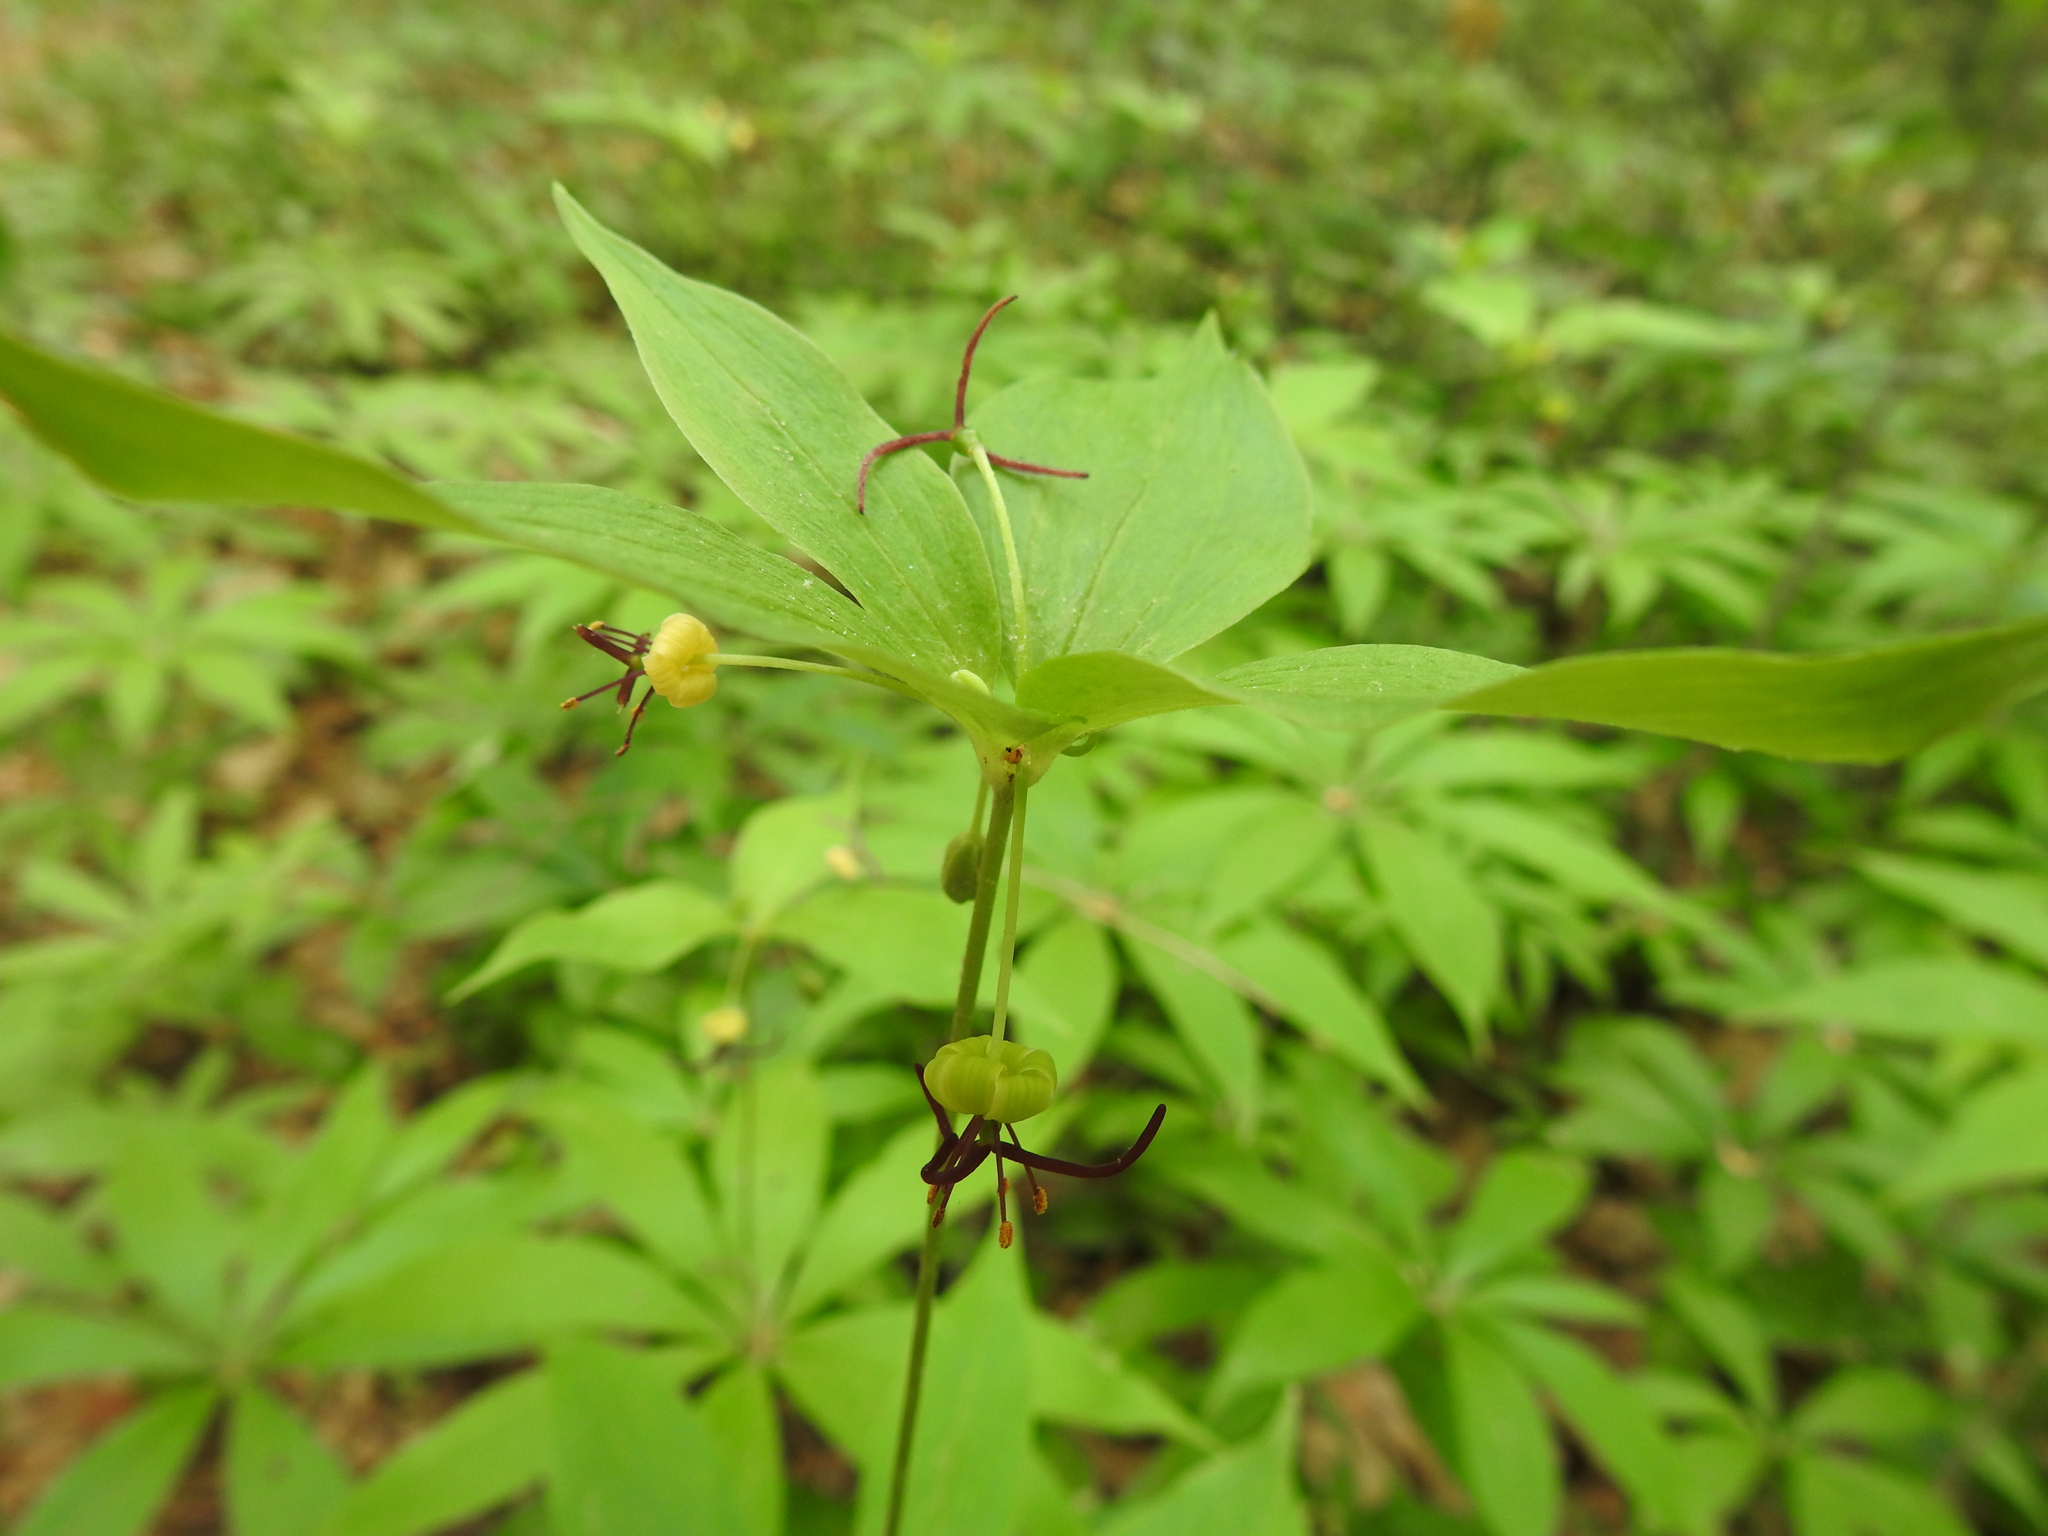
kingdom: Plantae
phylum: Tracheophyta
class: Liliopsida
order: Liliales
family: Liliaceae
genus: Medeola
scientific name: Medeola virginiana
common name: Indian cucumber-root
